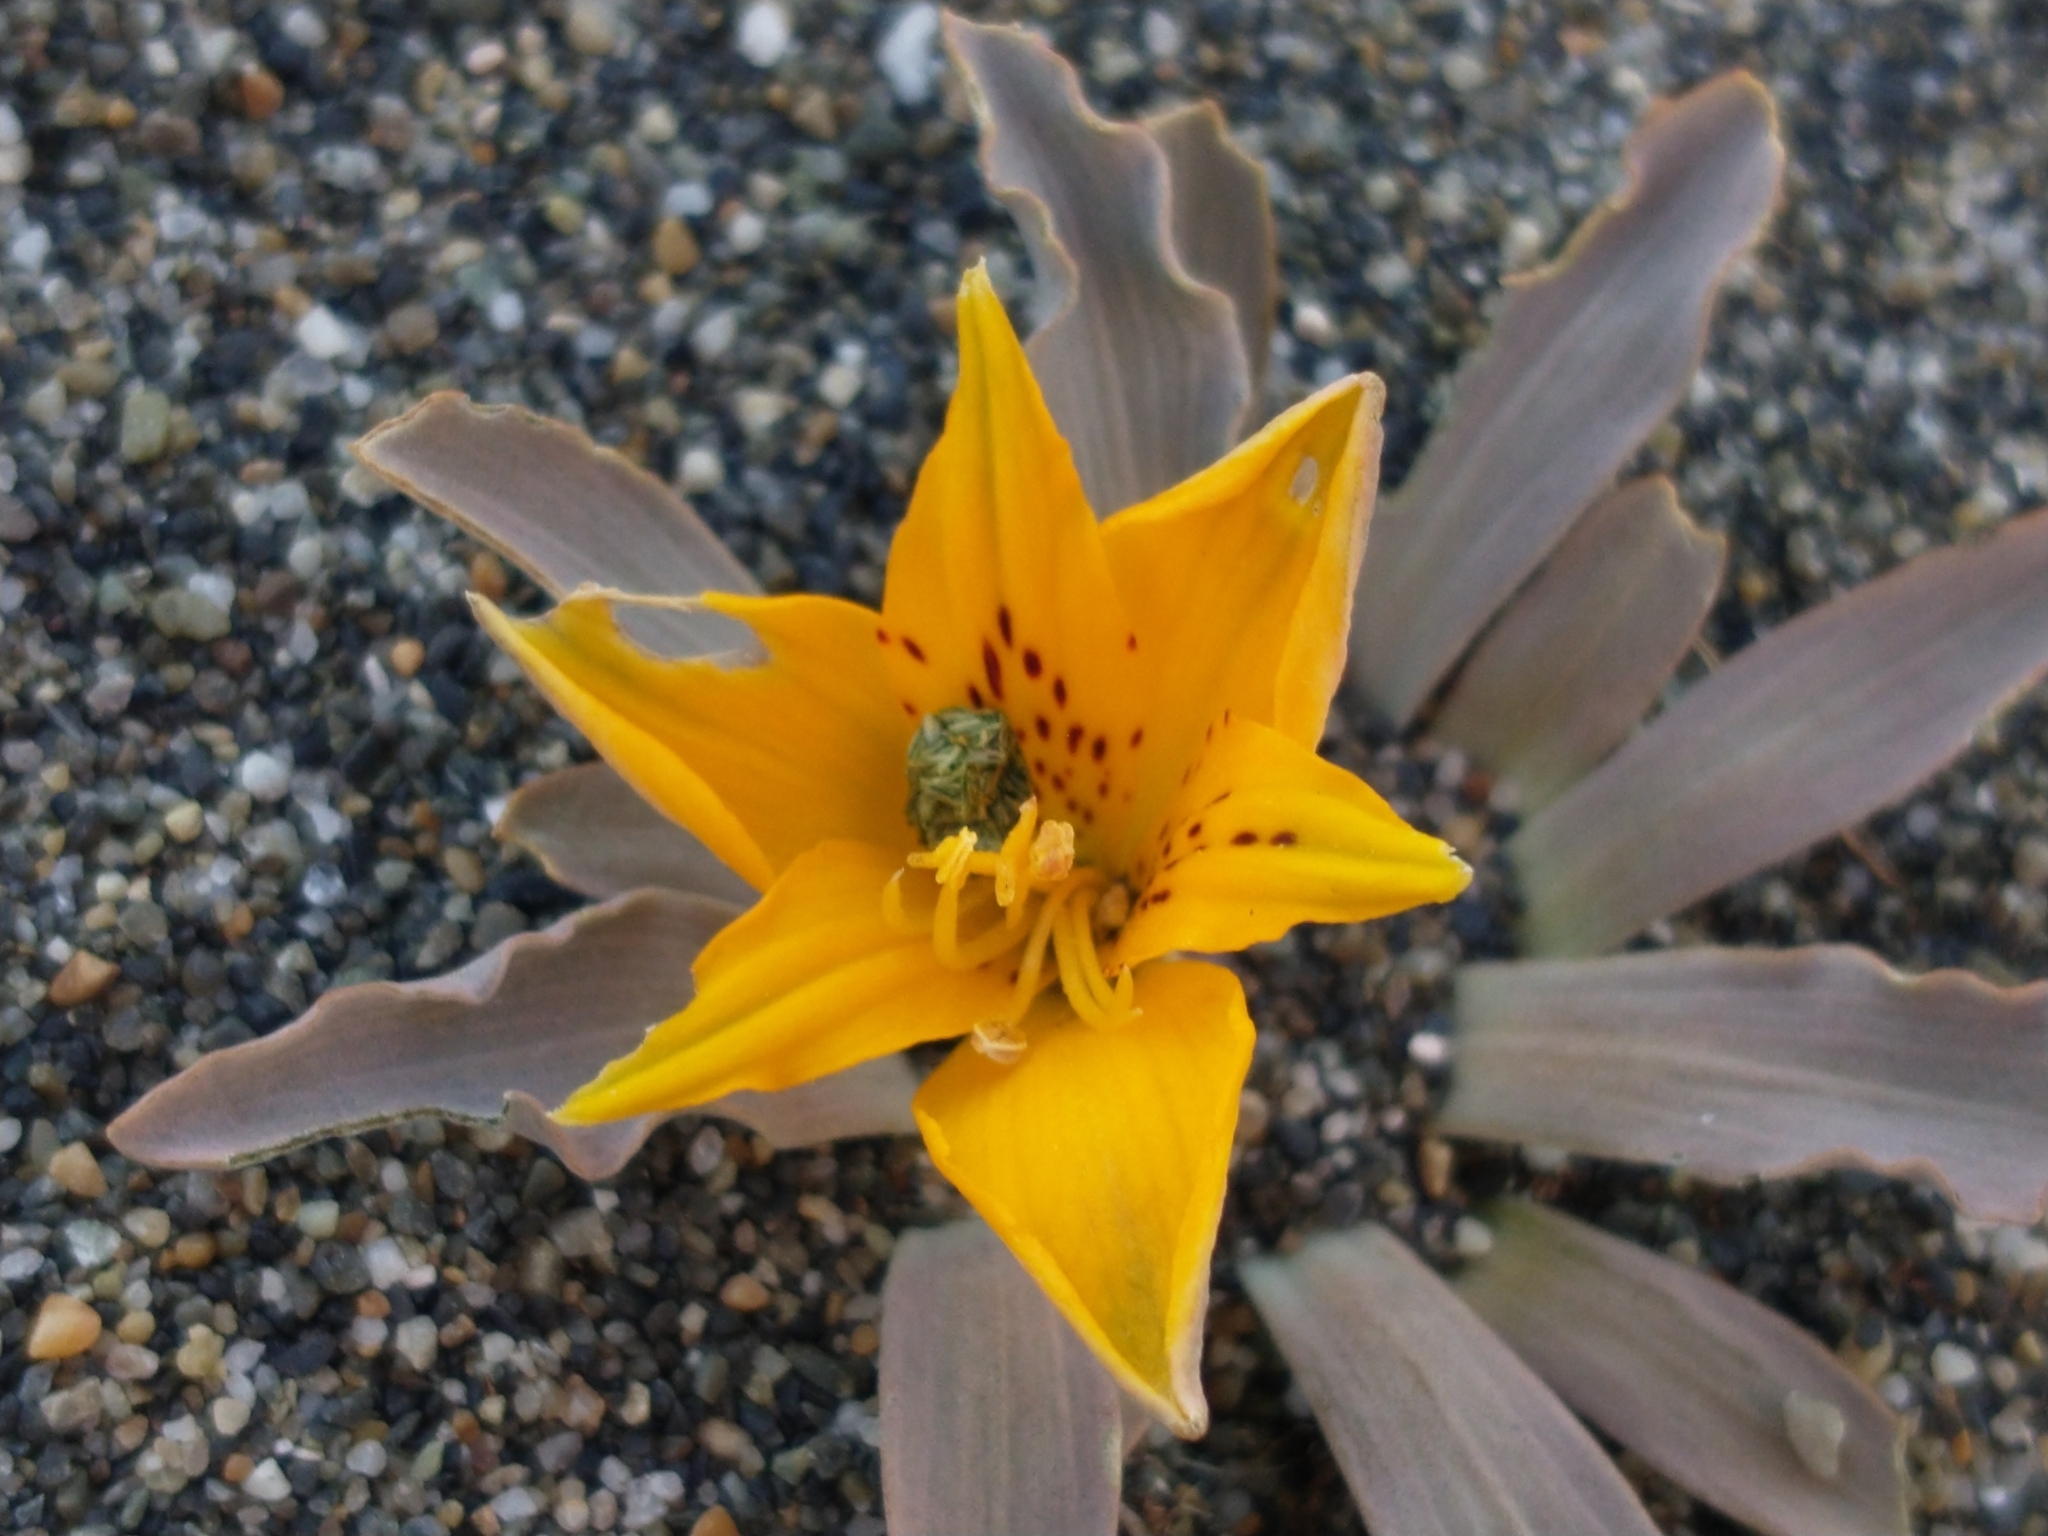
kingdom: Plantae
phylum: Tracheophyta
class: Liliopsida
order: Liliales
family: Alstroemeriaceae
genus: Alstroemeria
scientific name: Alstroemeria patagonica
